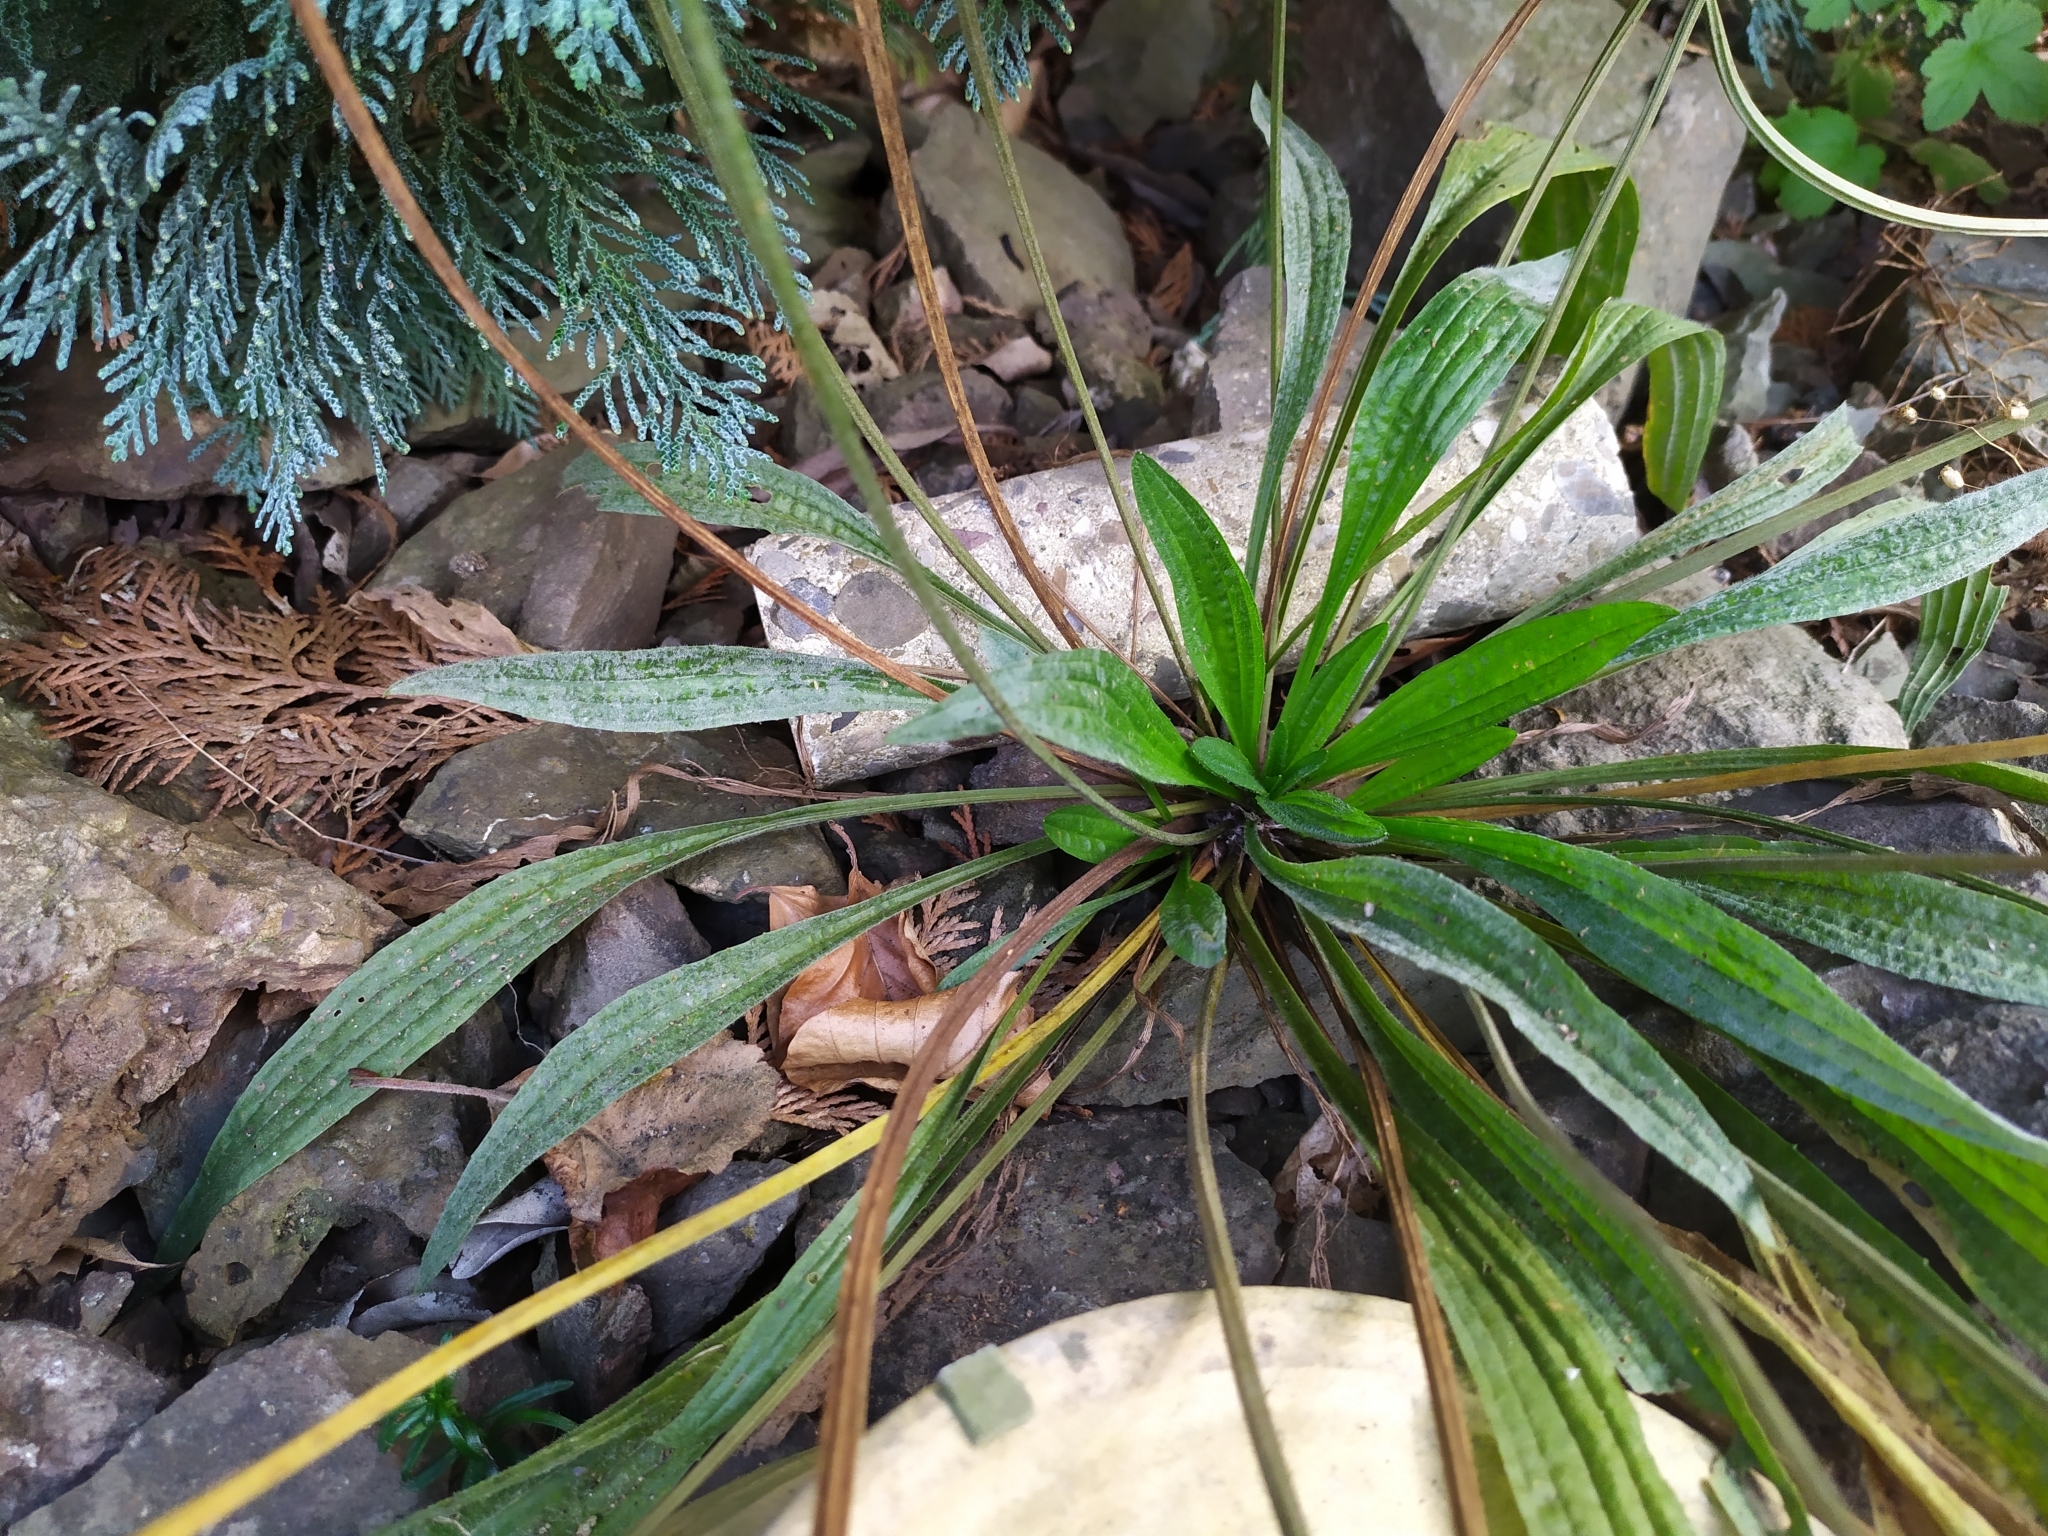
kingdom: Fungi
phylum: Ascomycota
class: Leotiomycetes
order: Helotiales
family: Erysiphaceae
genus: Golovinomyces
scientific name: Golovinomyces sordidus
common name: Plantain mildew
